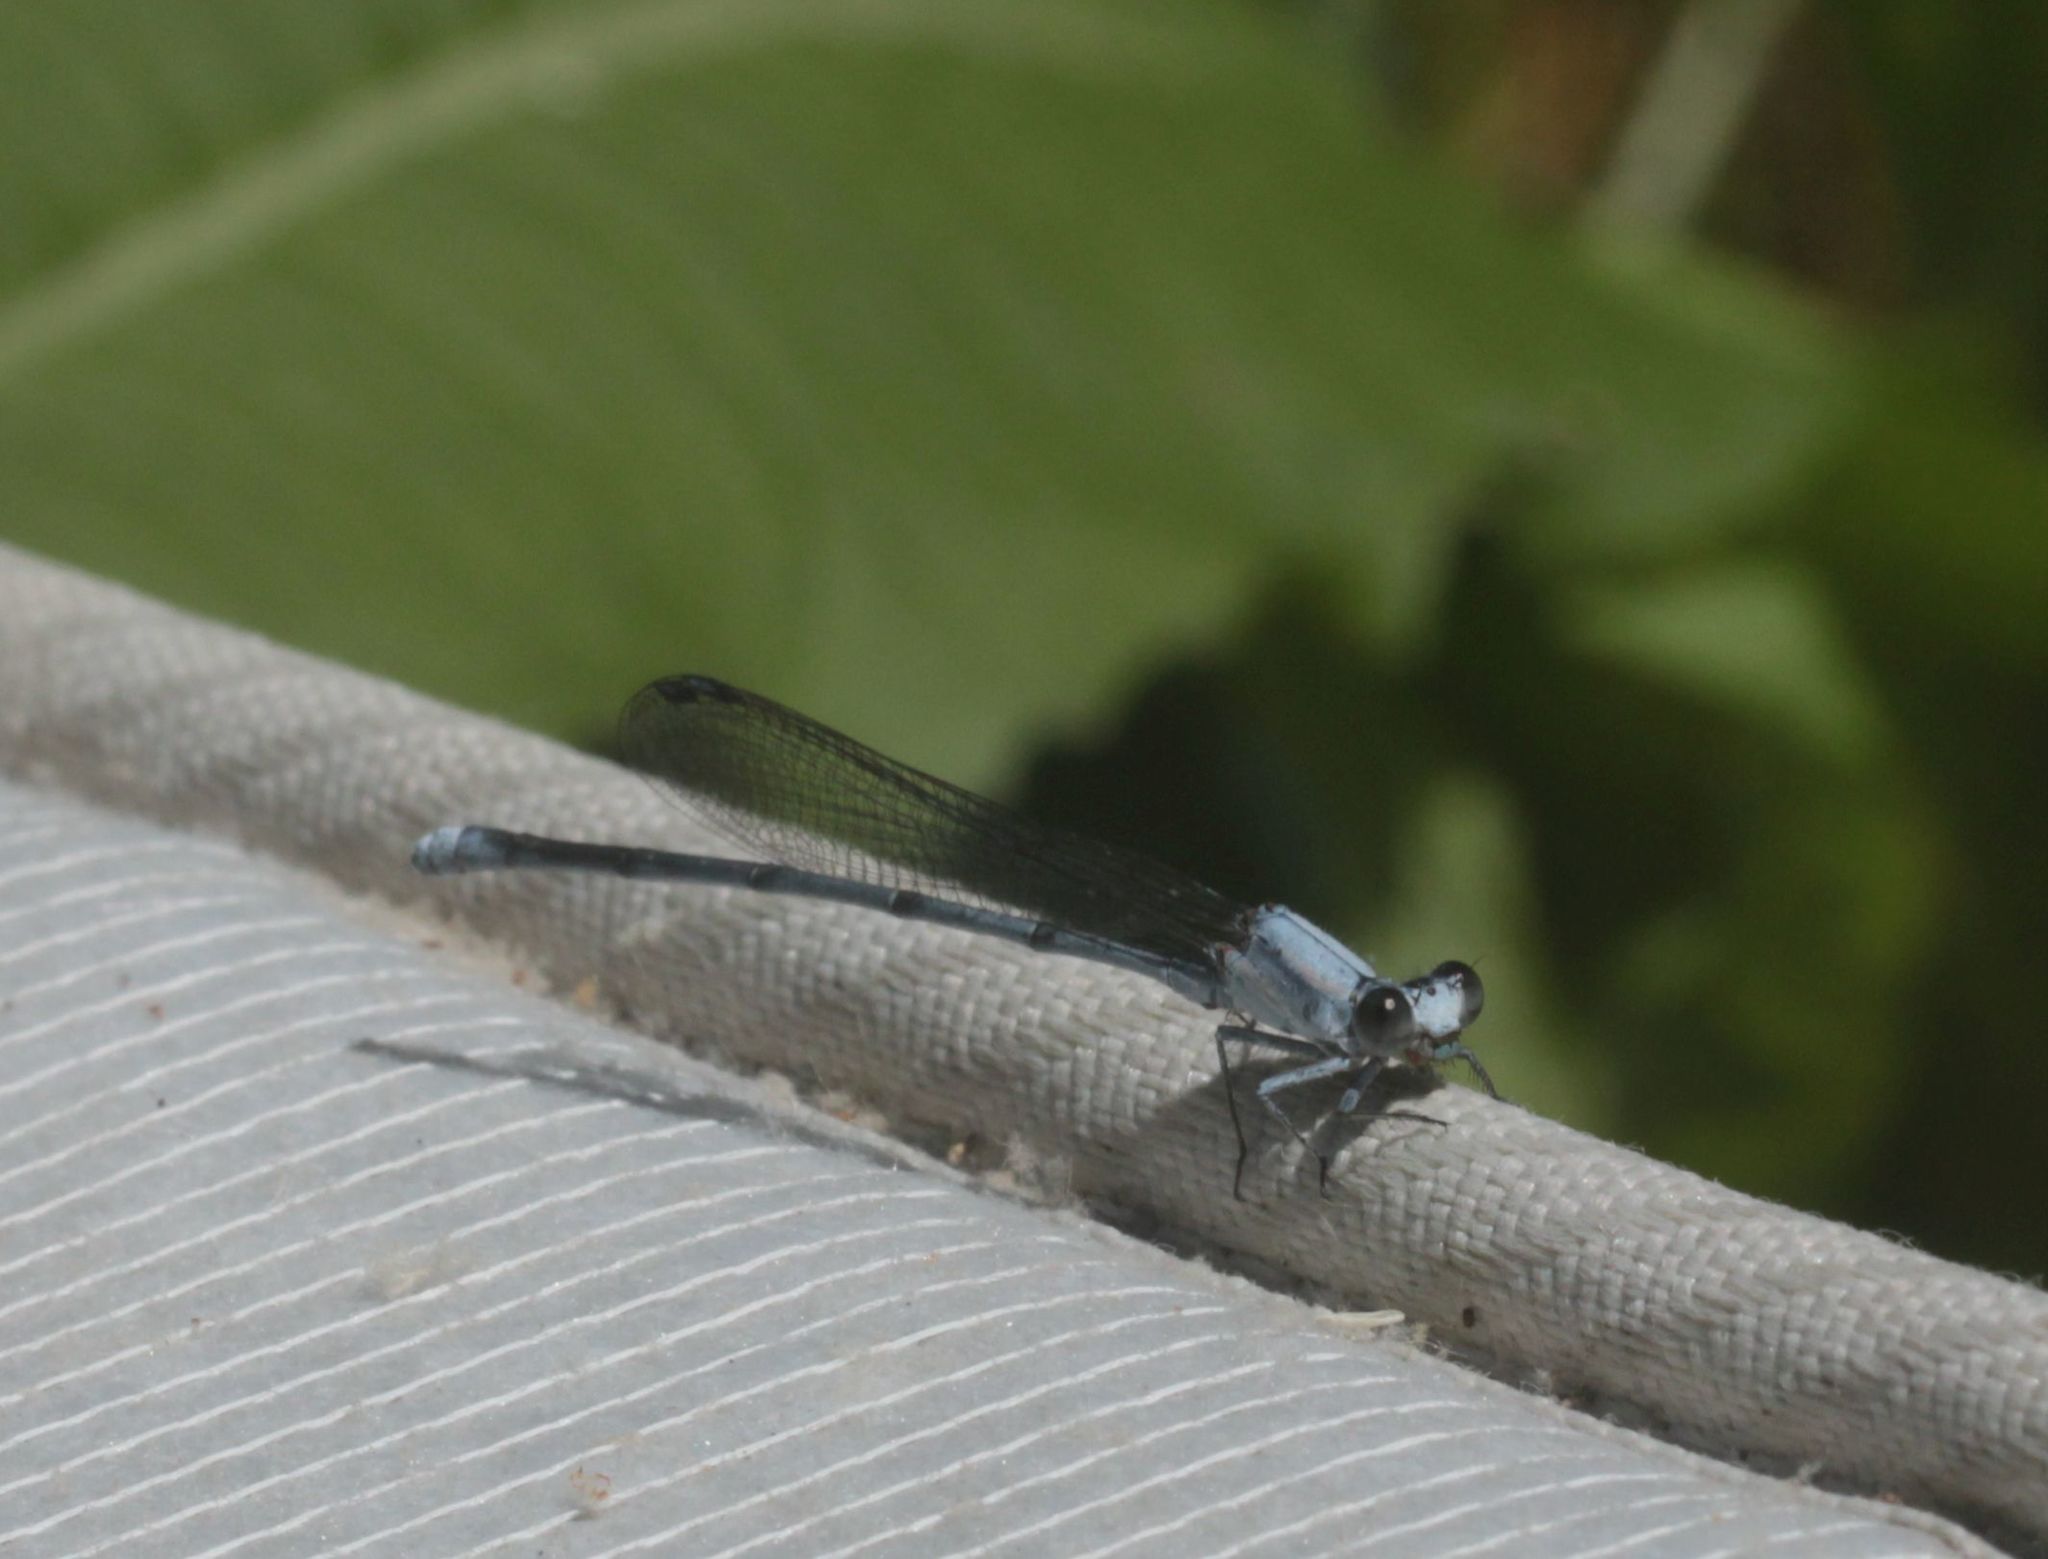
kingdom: Animalia
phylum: Arthropoda
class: Insecta
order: Odonata
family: Coenagrionidae
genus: Argia
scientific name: Argia moesta
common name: Powdered dancer
